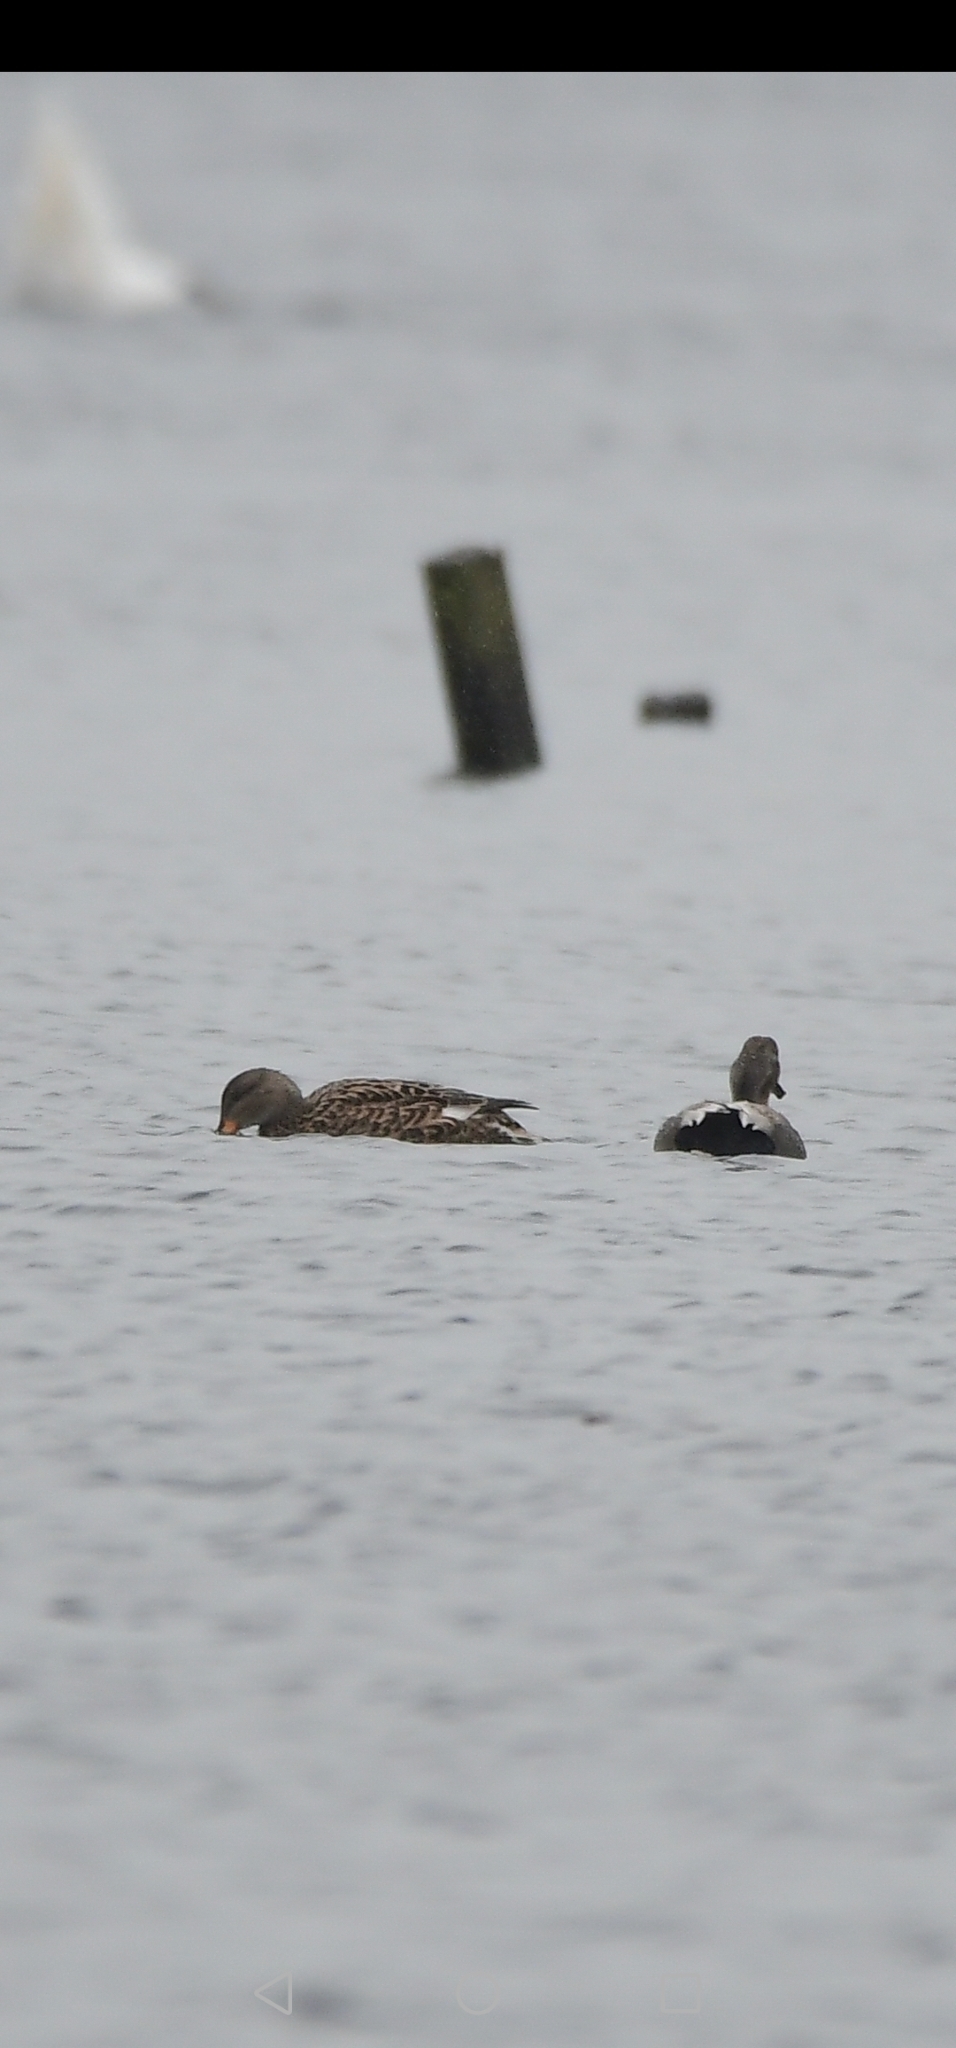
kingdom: Animalia
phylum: Chordata
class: Aves
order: Anseriformes
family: Anatidae
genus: Mareca
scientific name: Mareca strepera
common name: Gadwall
